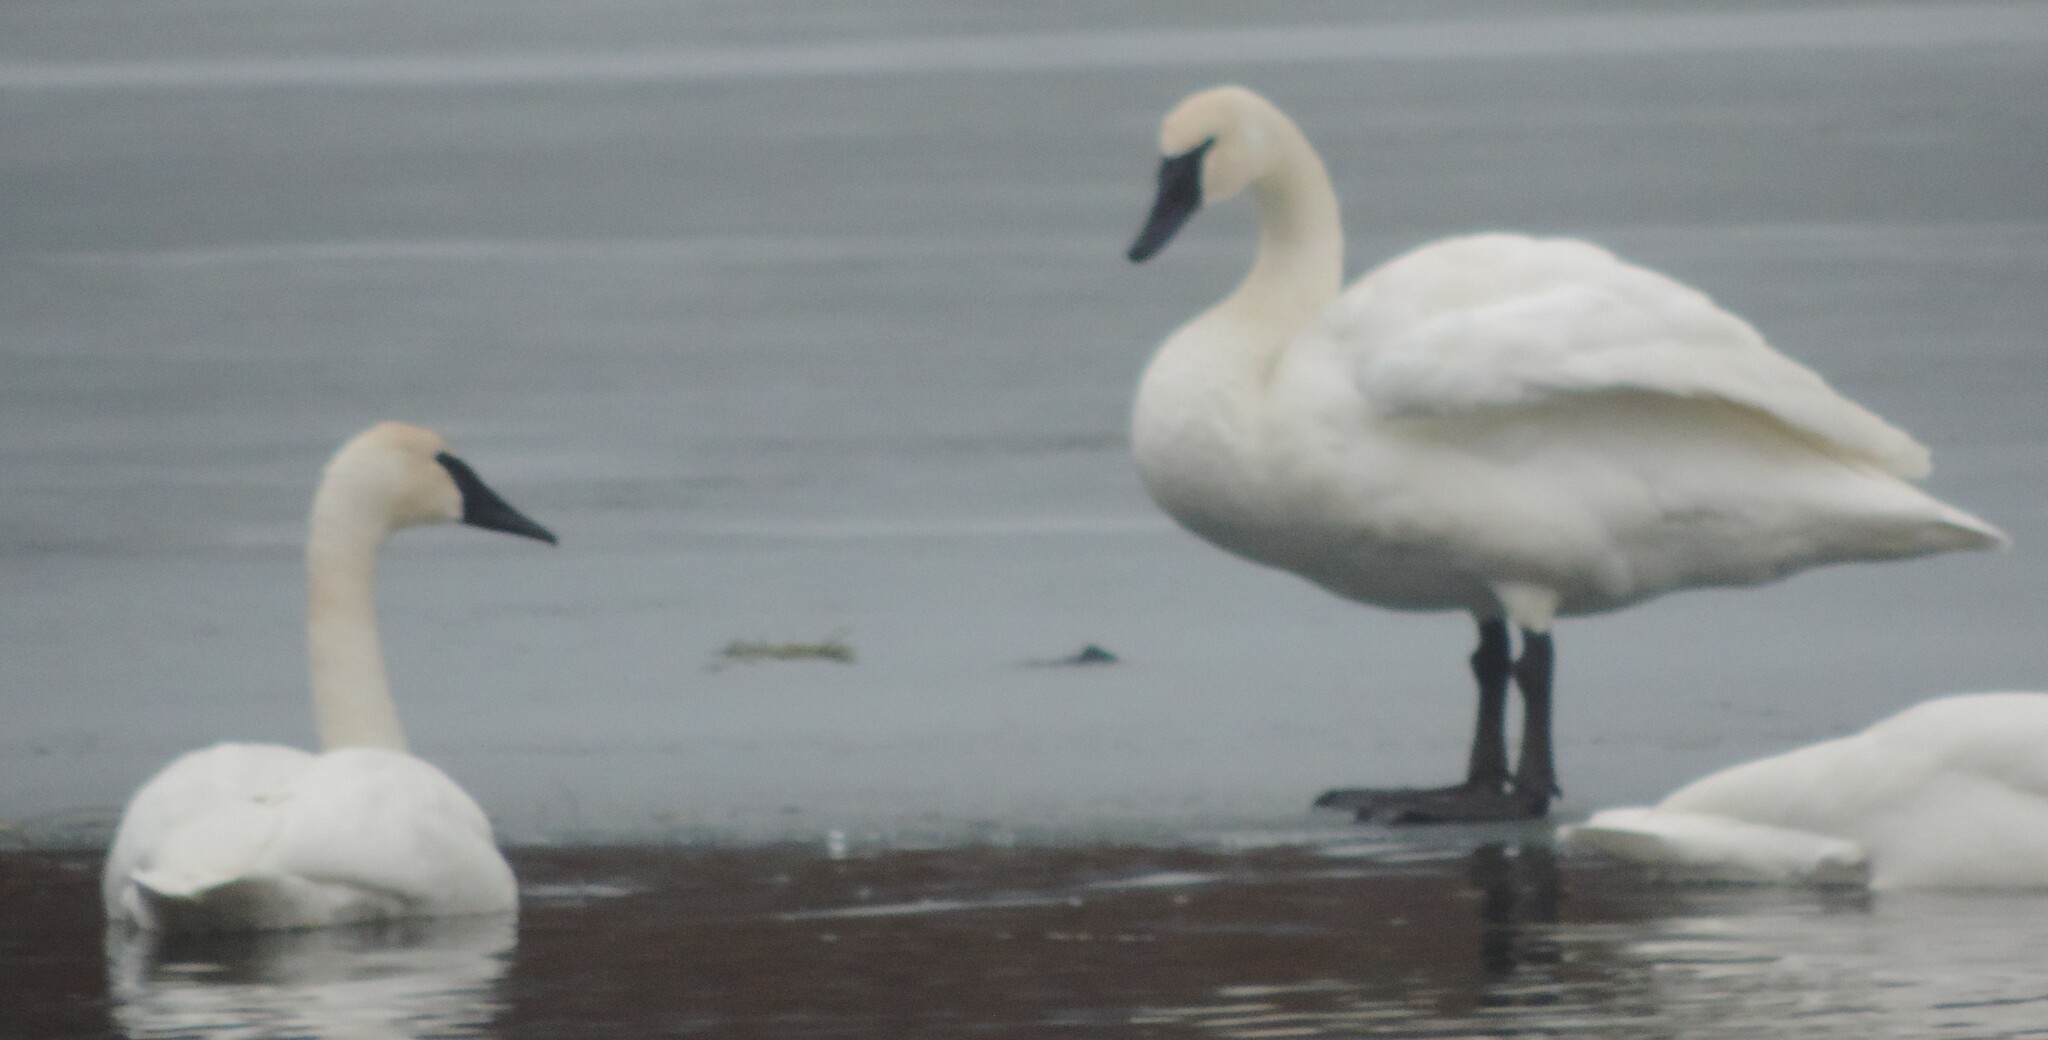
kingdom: Animalia
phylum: Chordata
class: Aves
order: Anseriformes
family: Anatidae
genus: Cygnus
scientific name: Cygnus buccinator
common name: Trumpeter swan
